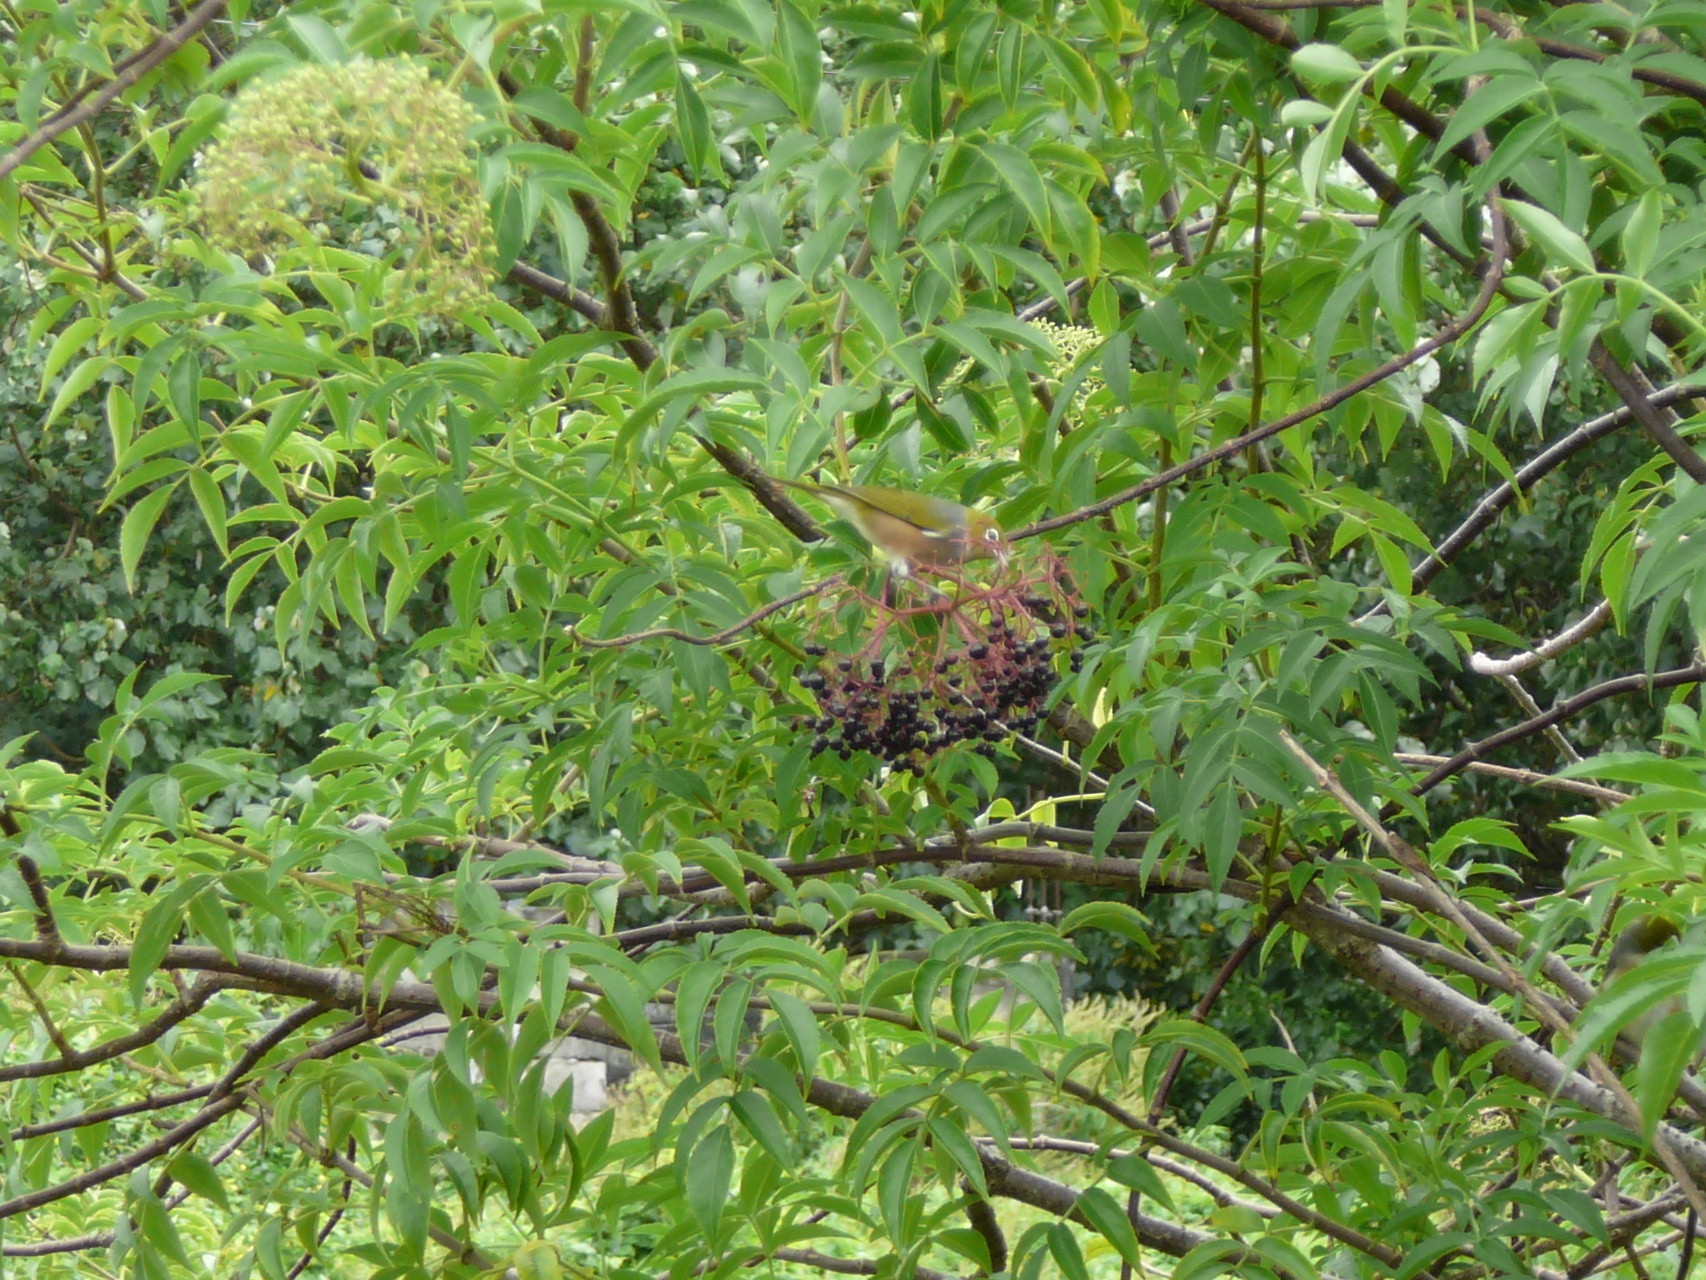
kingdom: Animalia
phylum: Chordata
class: Aves
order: Passeriformes
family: Zosteropidae
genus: Zosterops
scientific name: Zosterops lateralis
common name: Silvereye
